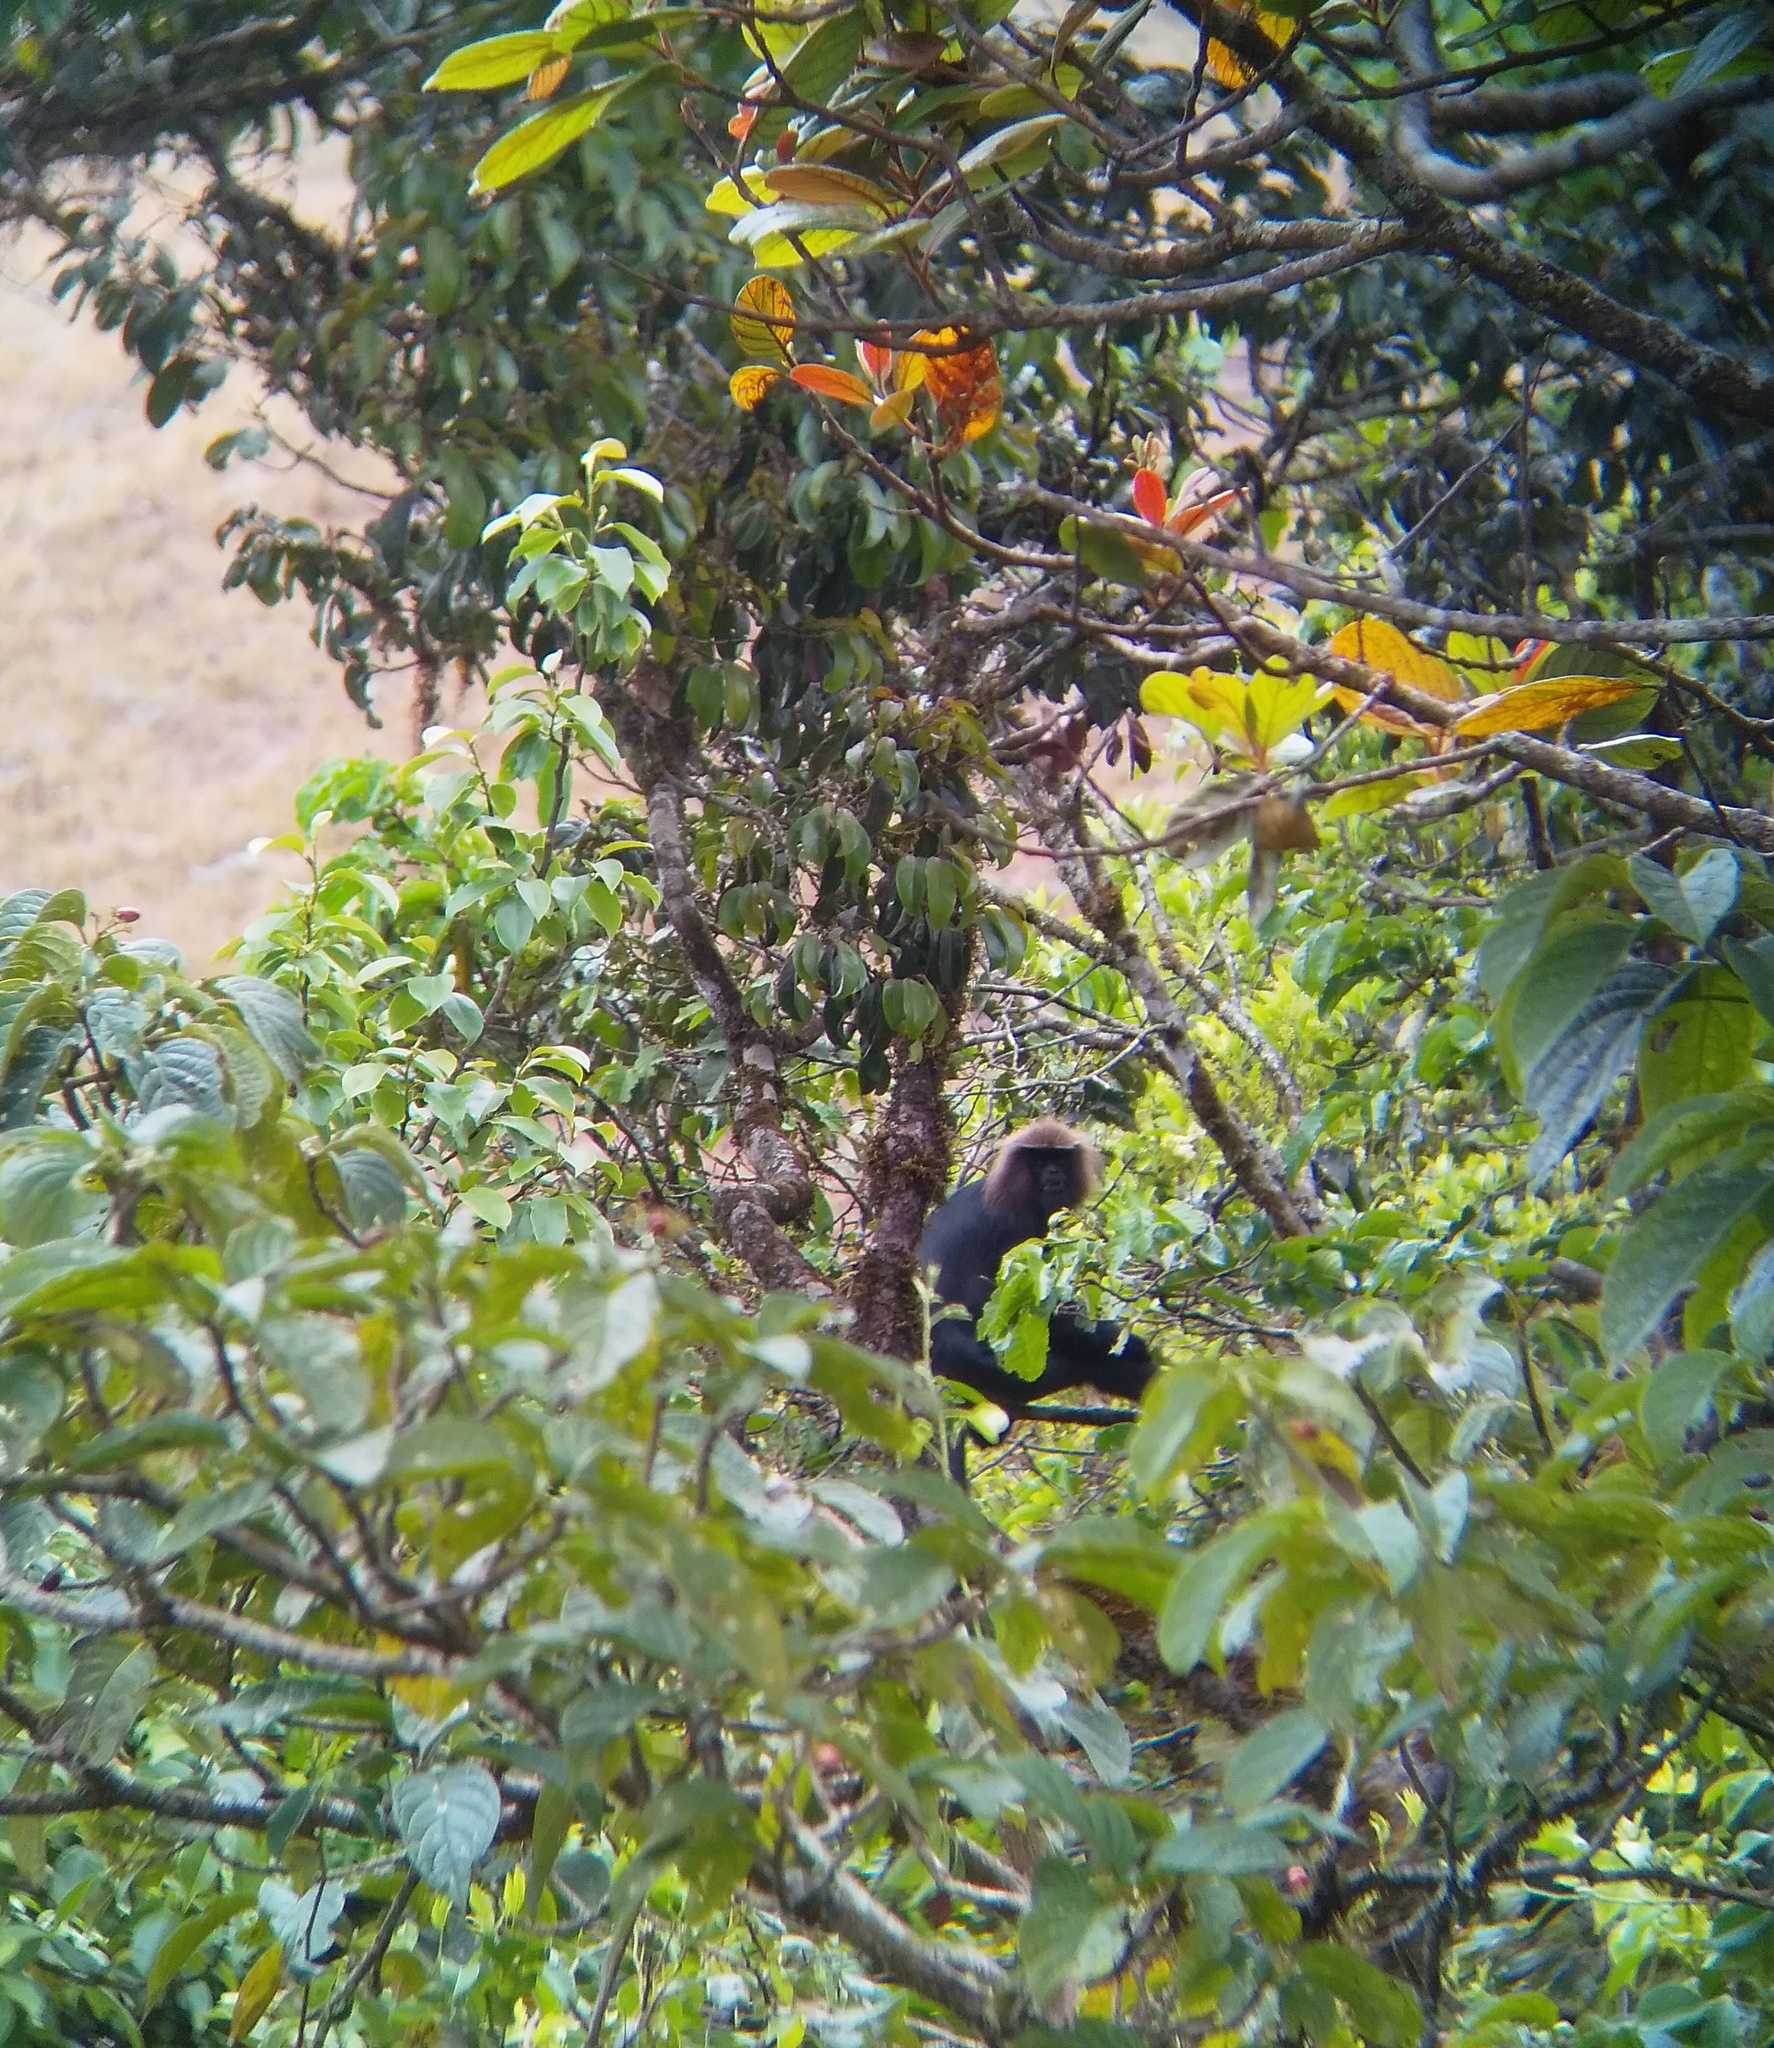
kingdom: Animalia
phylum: Chordata
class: Mammalia
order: Primates
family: Cercopithecidae
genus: Semnopithecus
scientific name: Semnopithecus johnii
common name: Nilgiri langur
